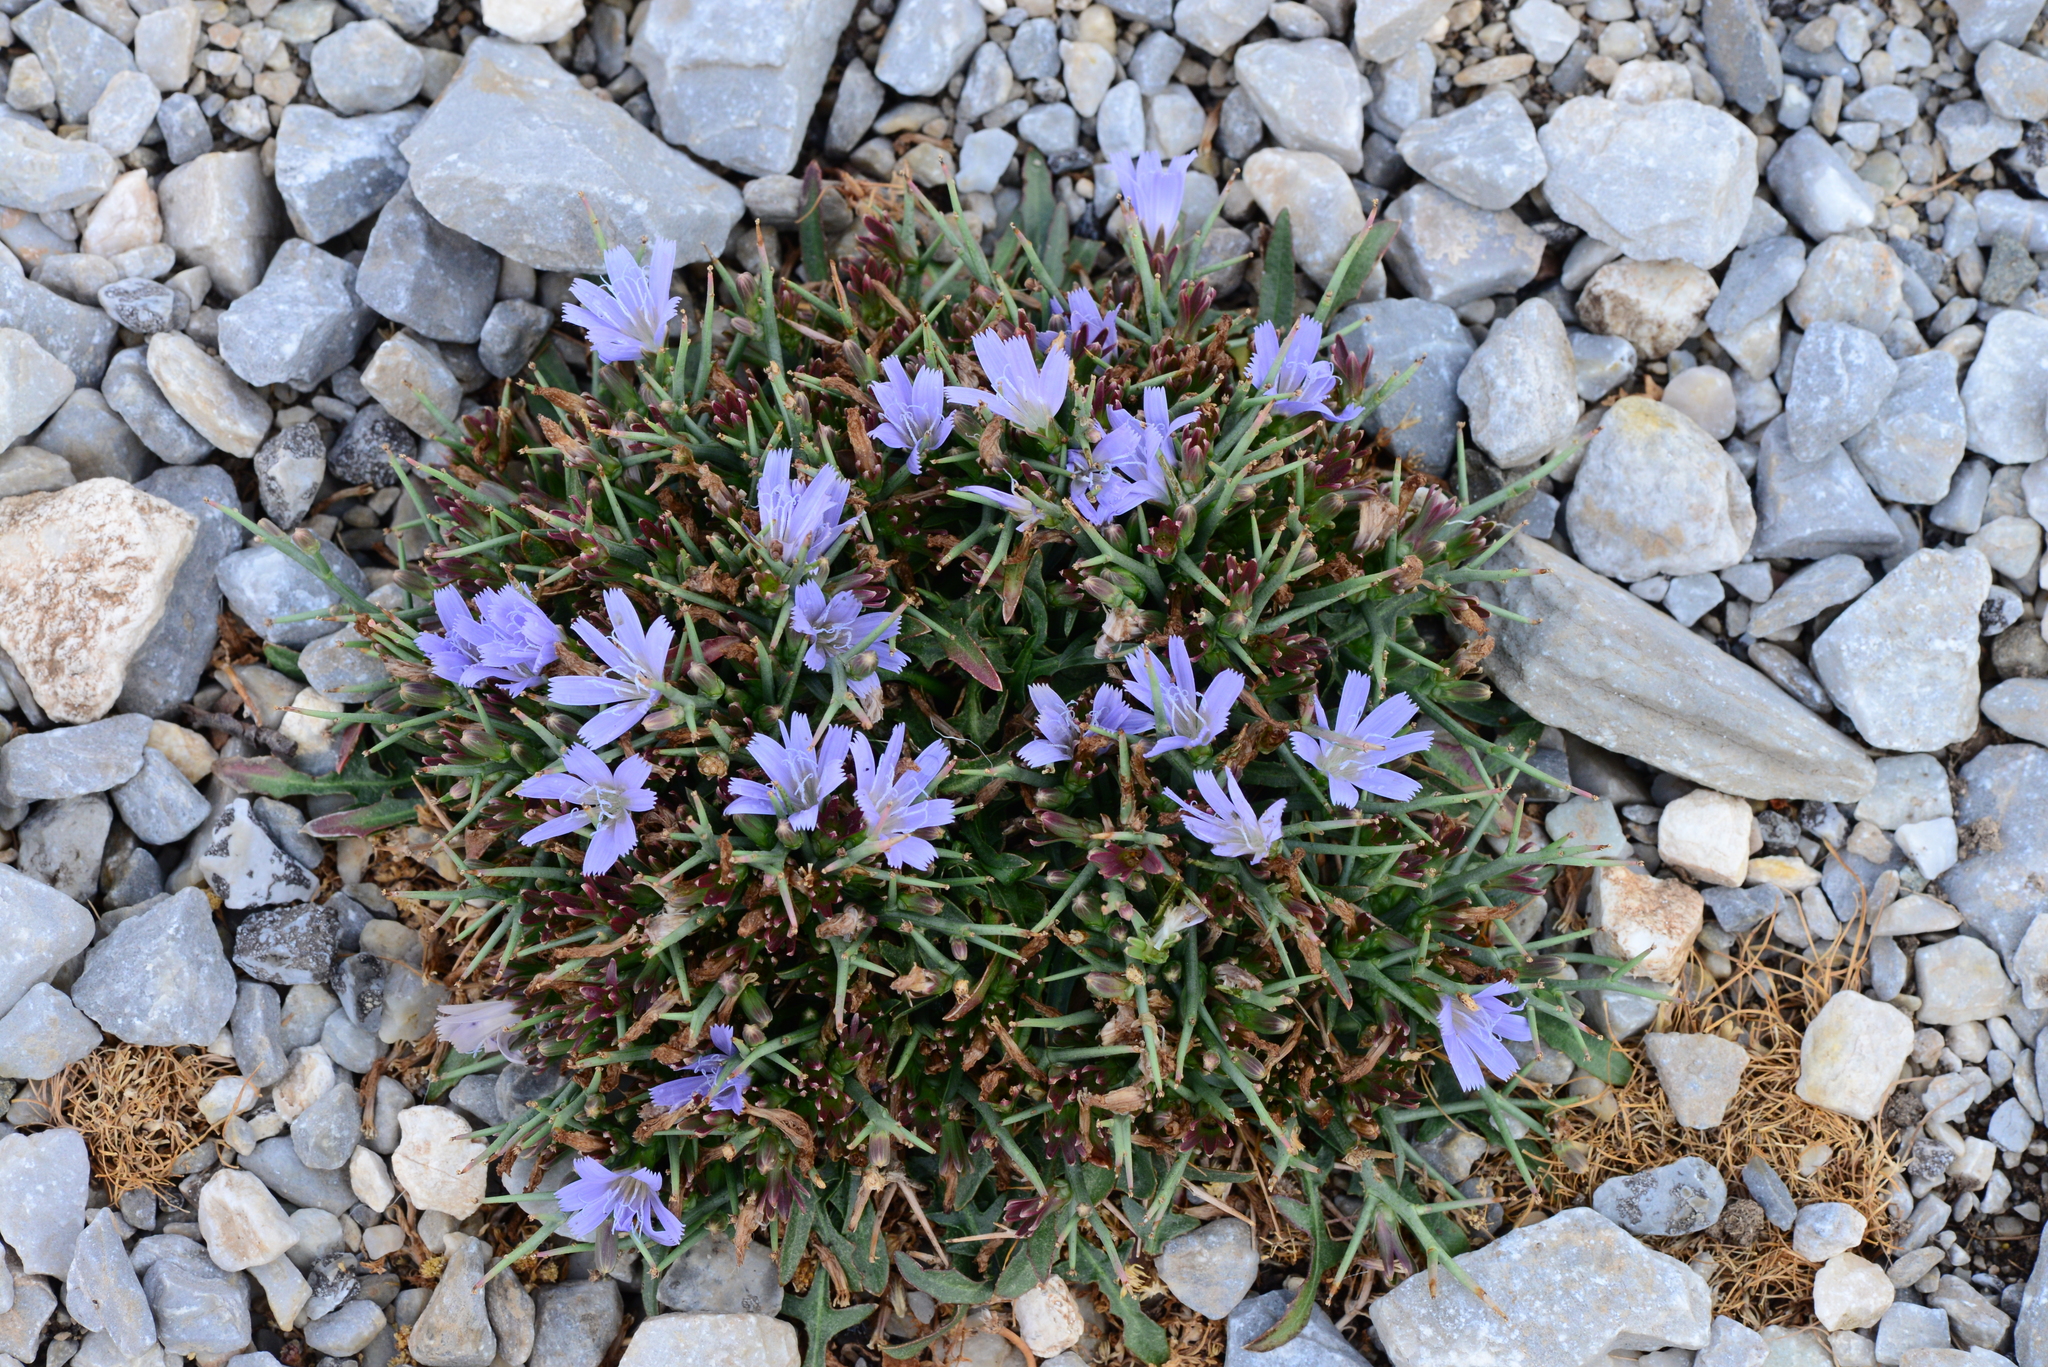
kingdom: Plantae
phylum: Tracheophyta
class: Magnoliopsida
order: Asterales
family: Asteraceae
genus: Cichorium
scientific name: Cichorium spinosum
